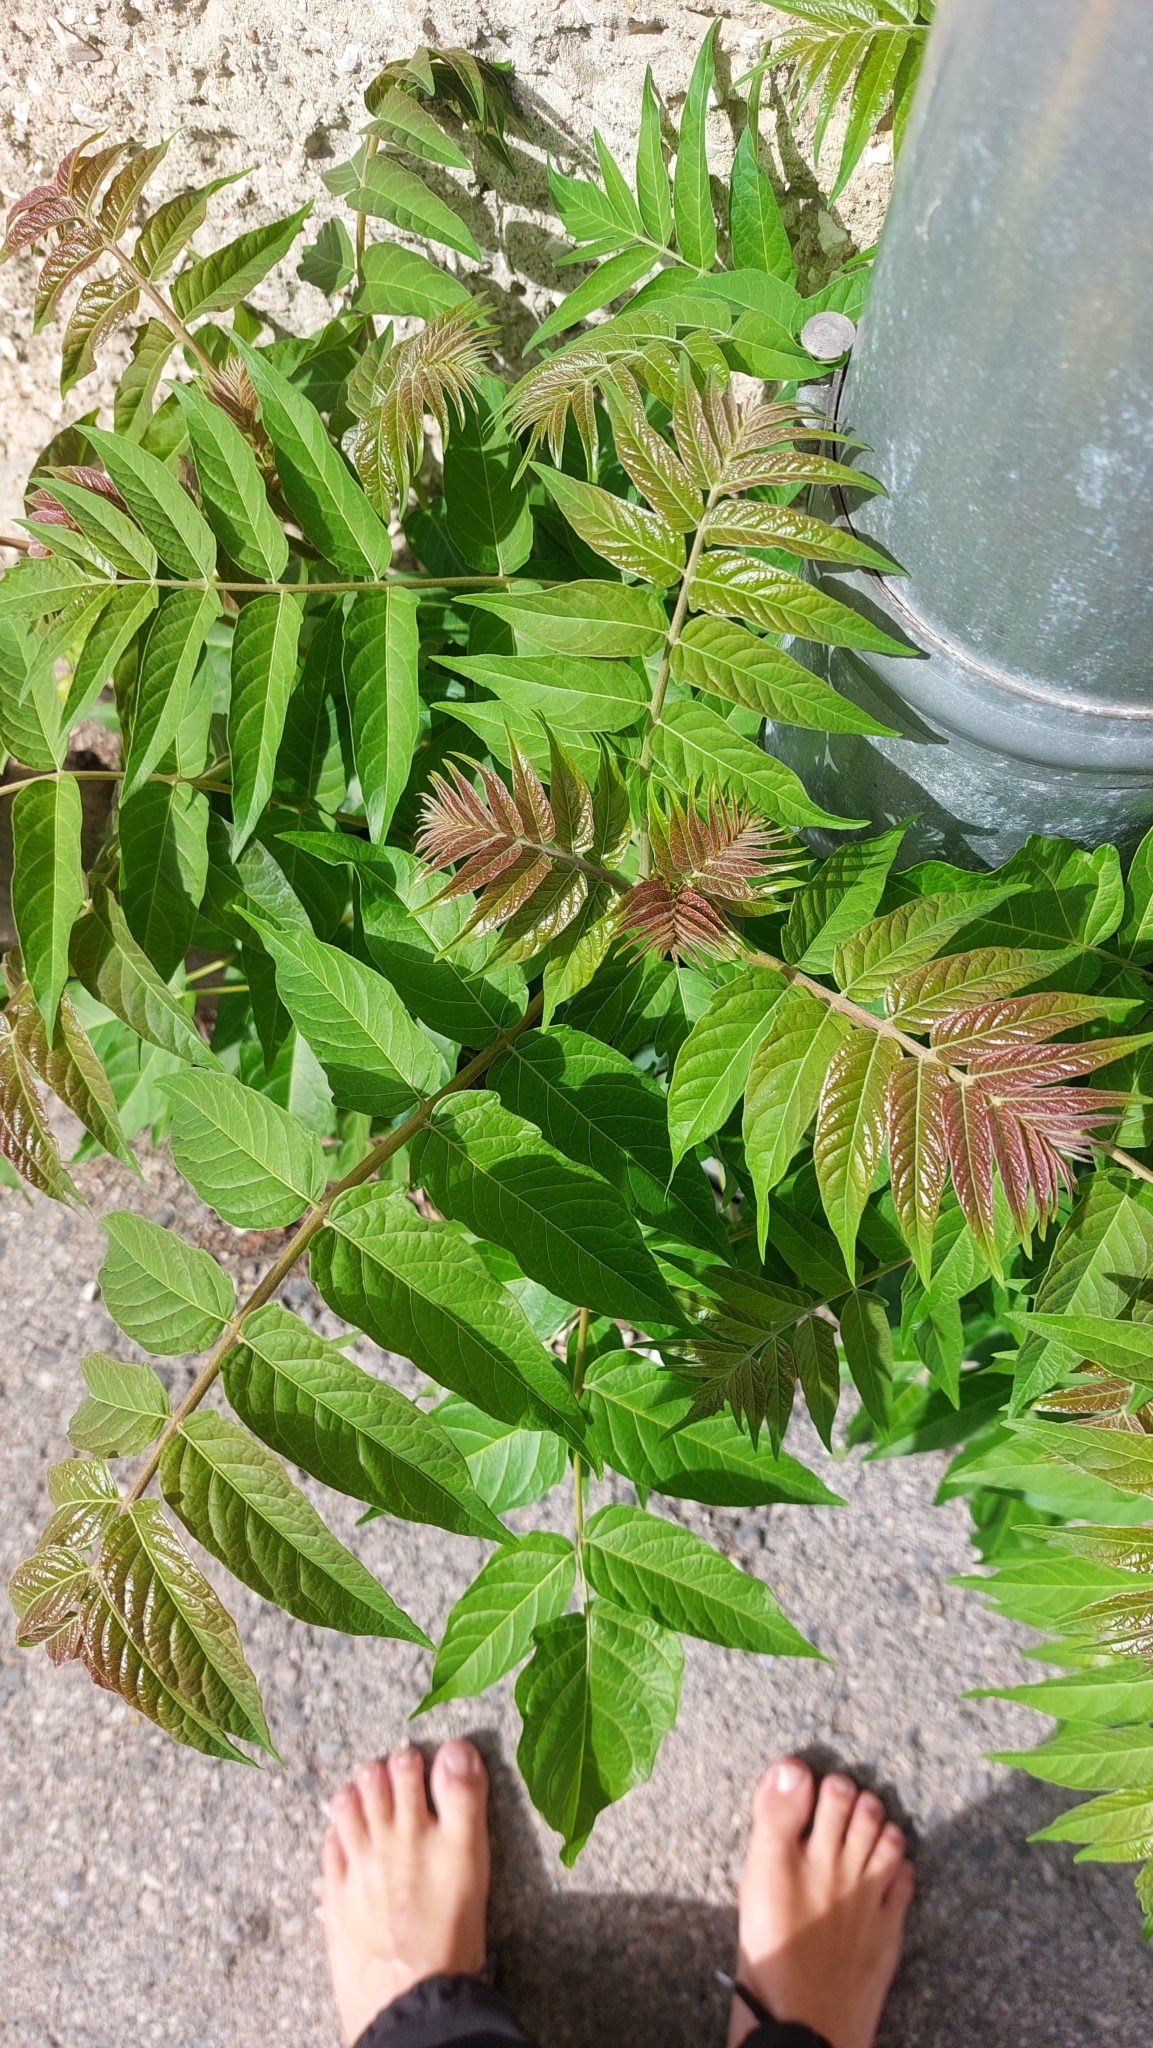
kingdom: Plantae
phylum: Tracheophyta
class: Magnoliopsida
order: Sapindales
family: Simaroubaceae
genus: Ailanthus
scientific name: Ailanthus altissima
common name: Tree-of-heaven
